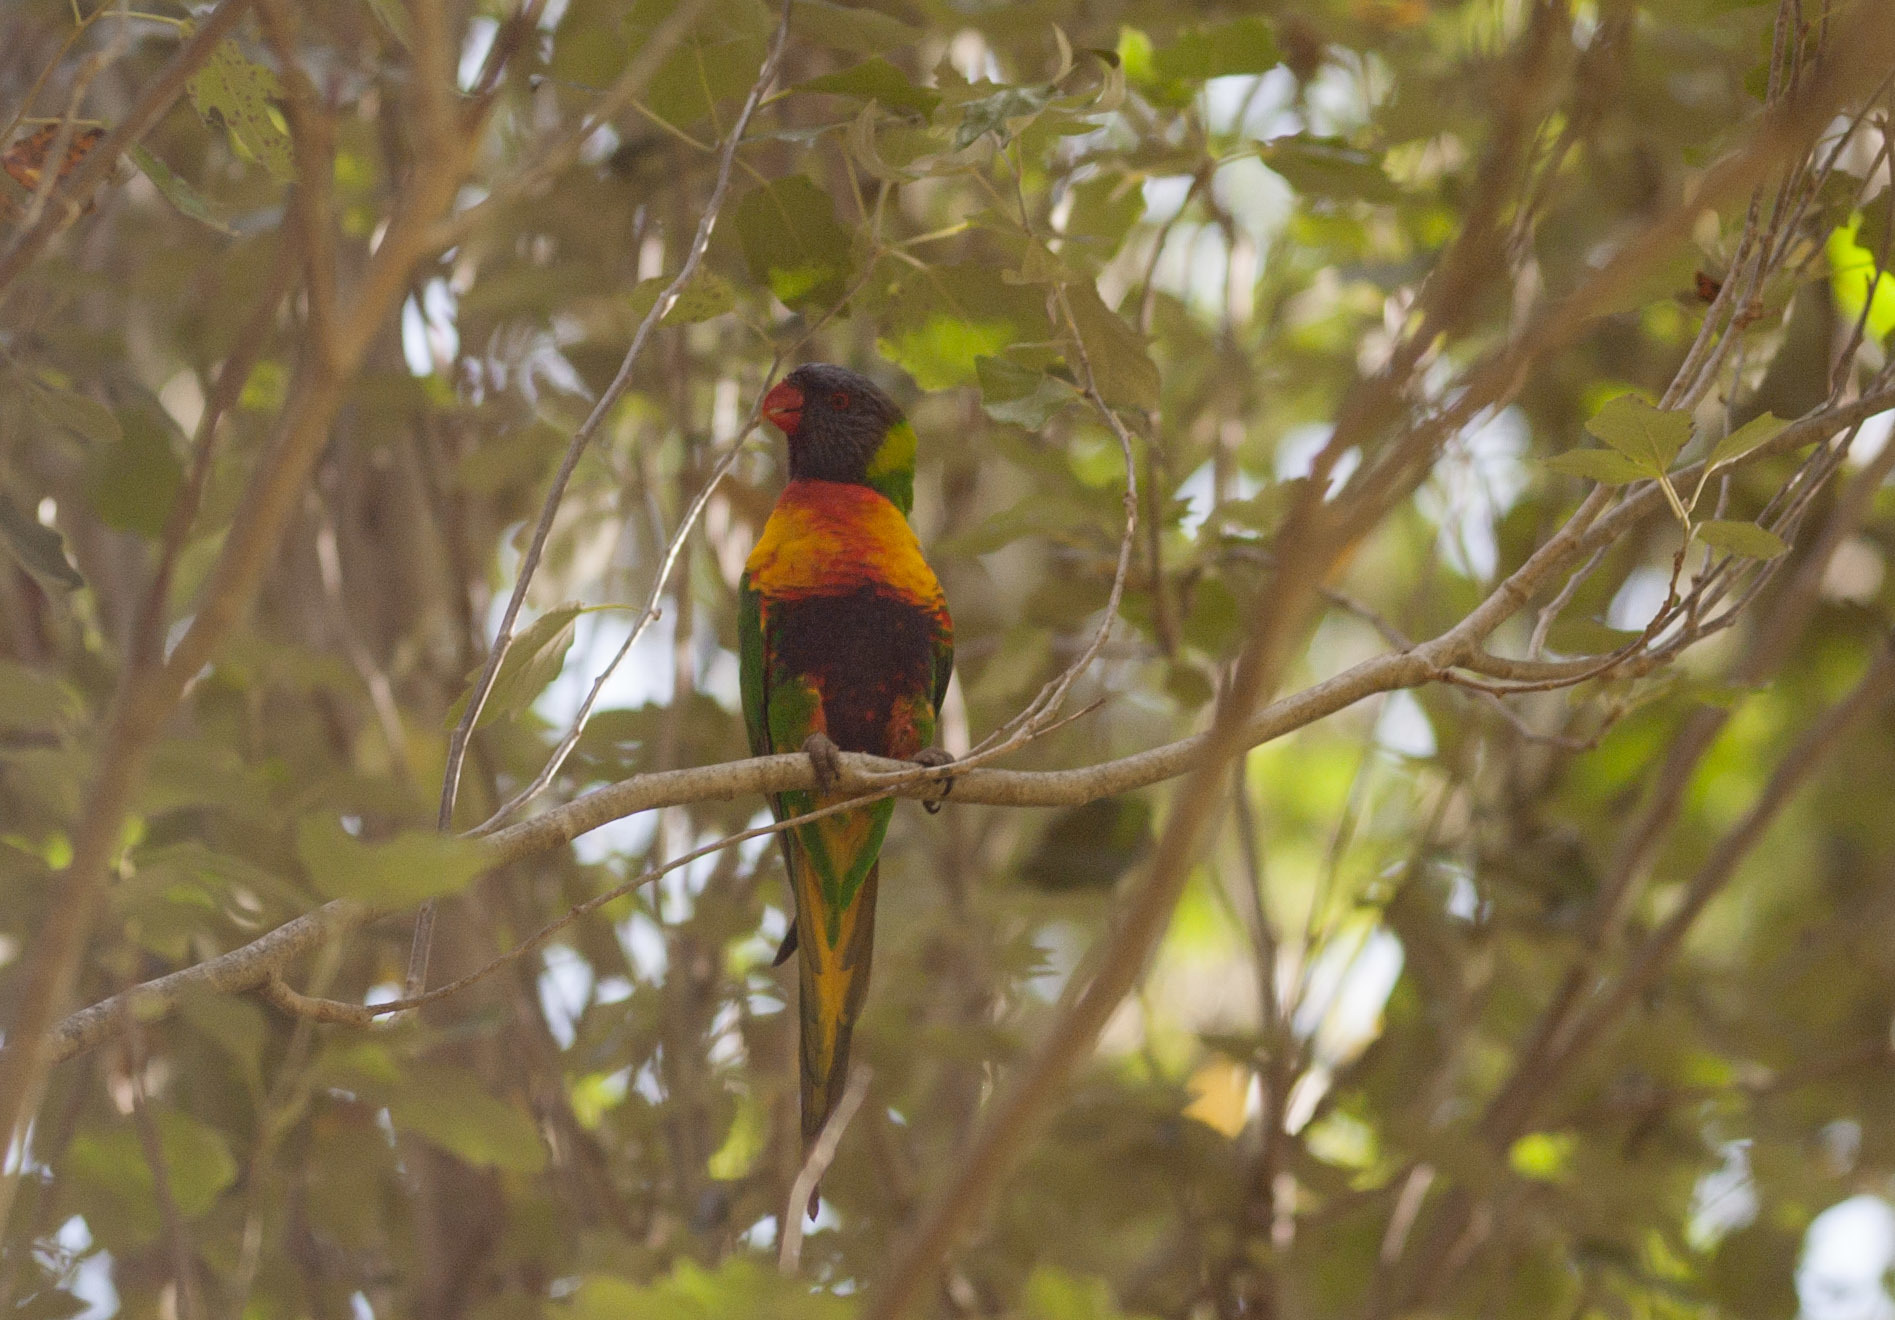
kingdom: Animalia
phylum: Chordata
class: Aves
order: Psittaciformes
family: Psittacidae
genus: Trichoglossus
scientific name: Trichoglossus haematodus
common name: Coconut lorikeet
